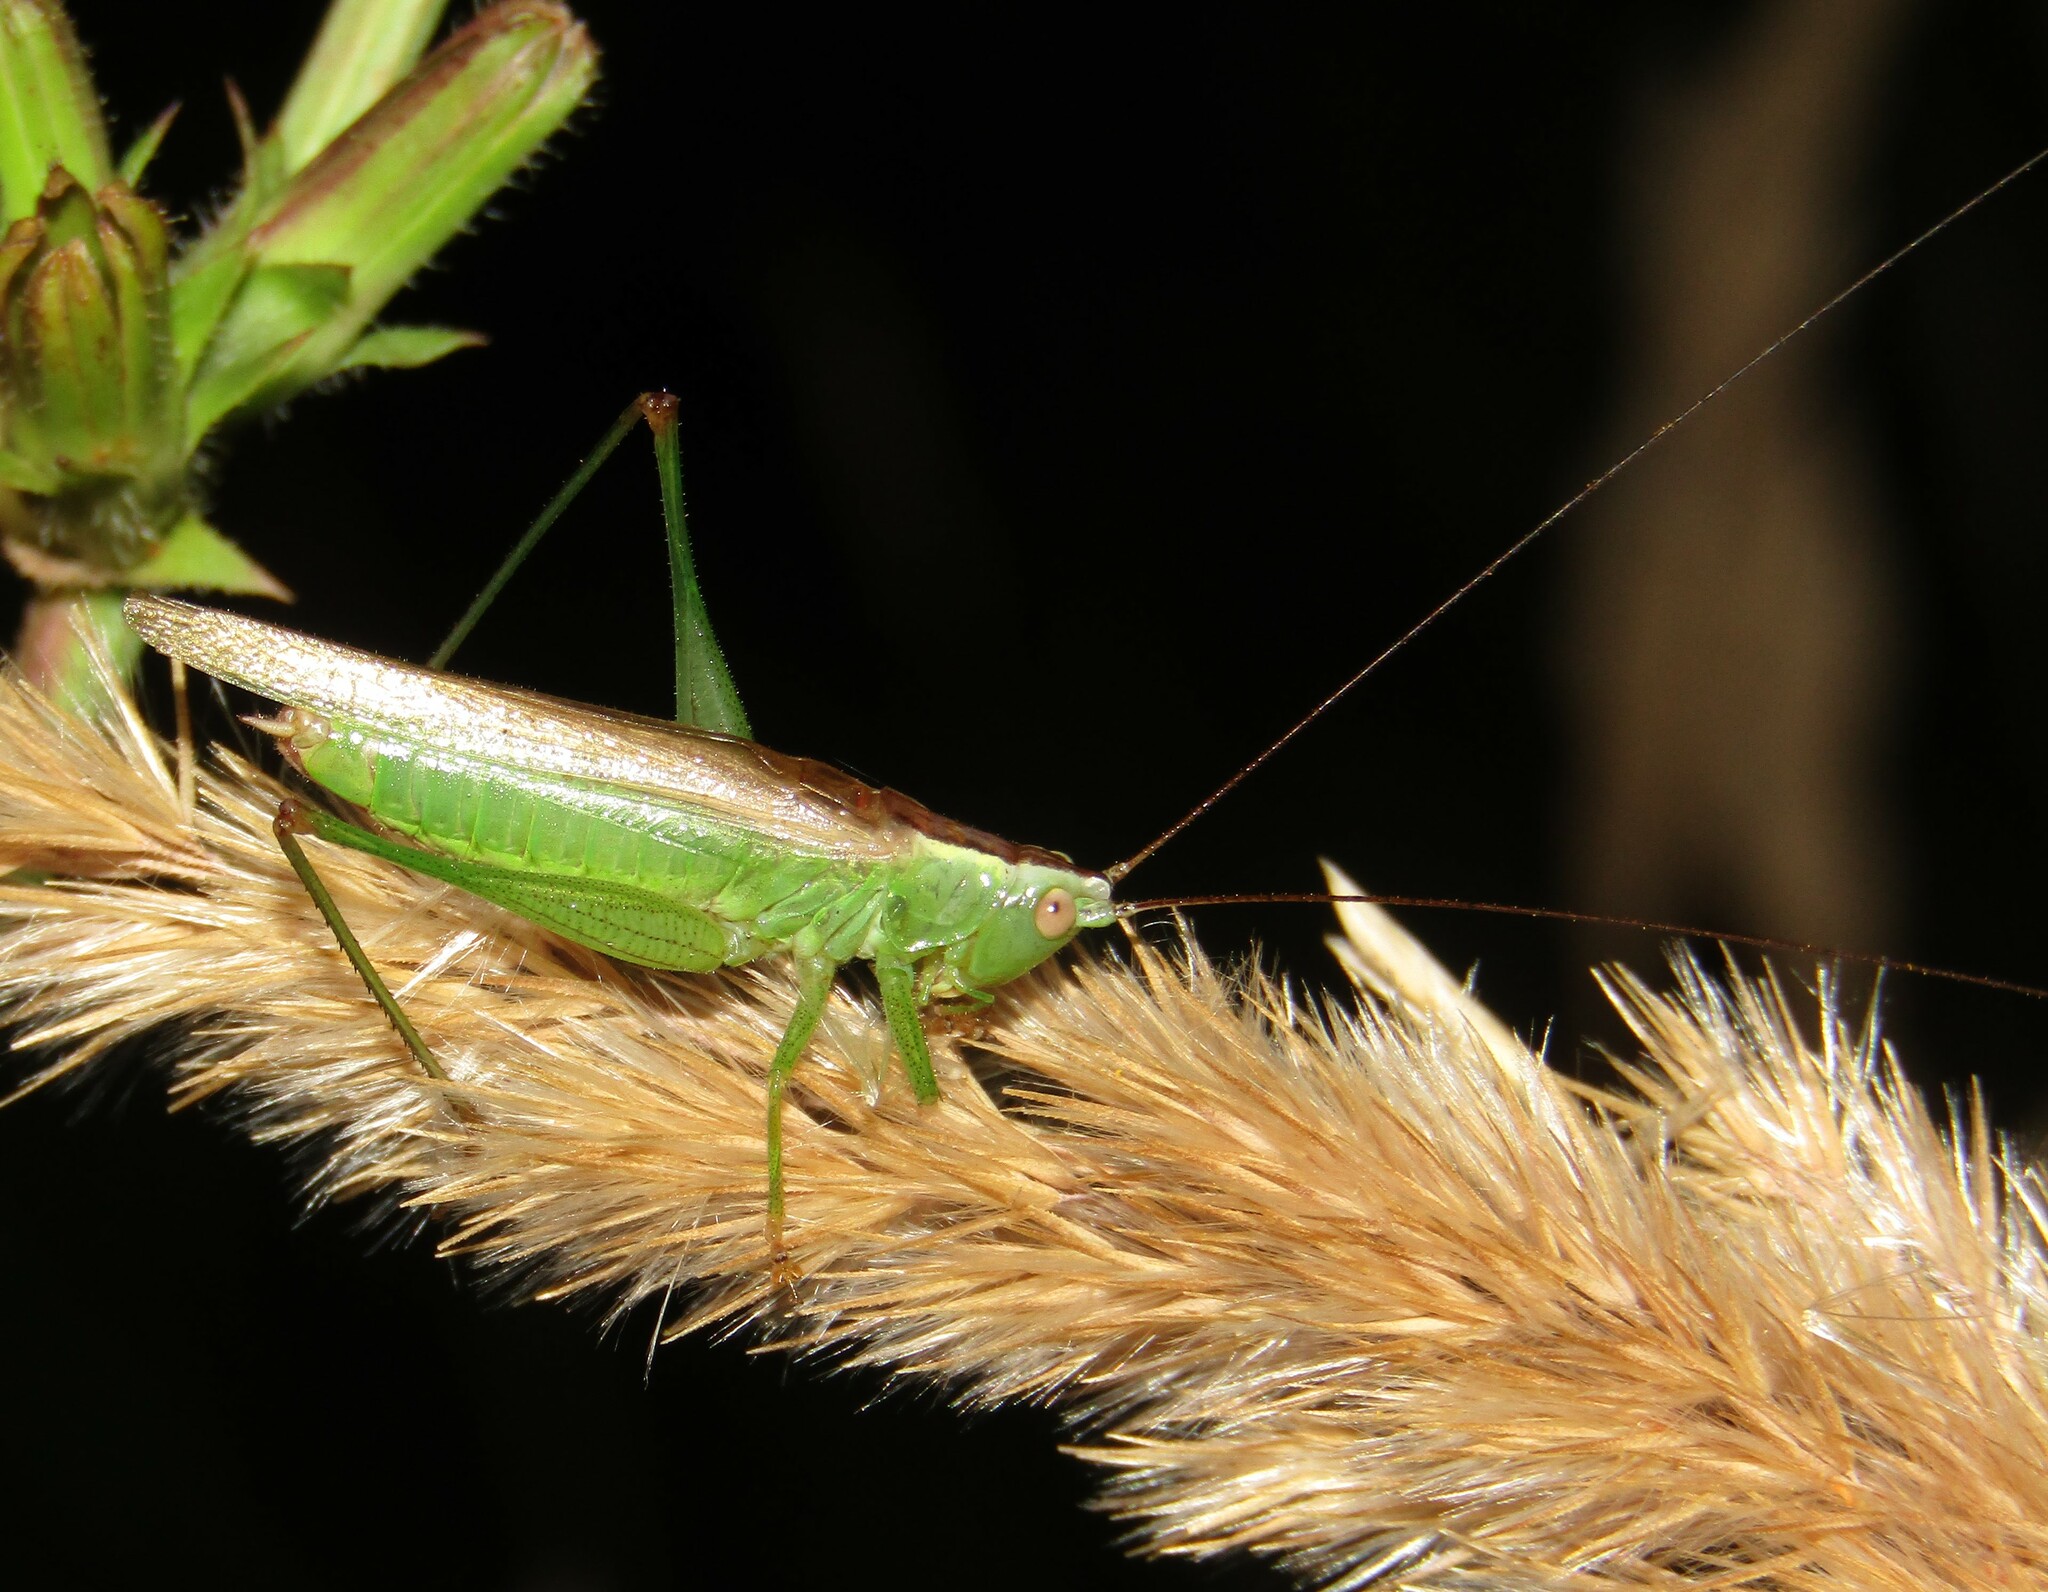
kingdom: Animalia
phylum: Arthropoda
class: Insecta
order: Orthoptera
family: Tettigoniidae
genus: Conocephalus
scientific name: Conocephalus fuscus
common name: Long-winged conehead
